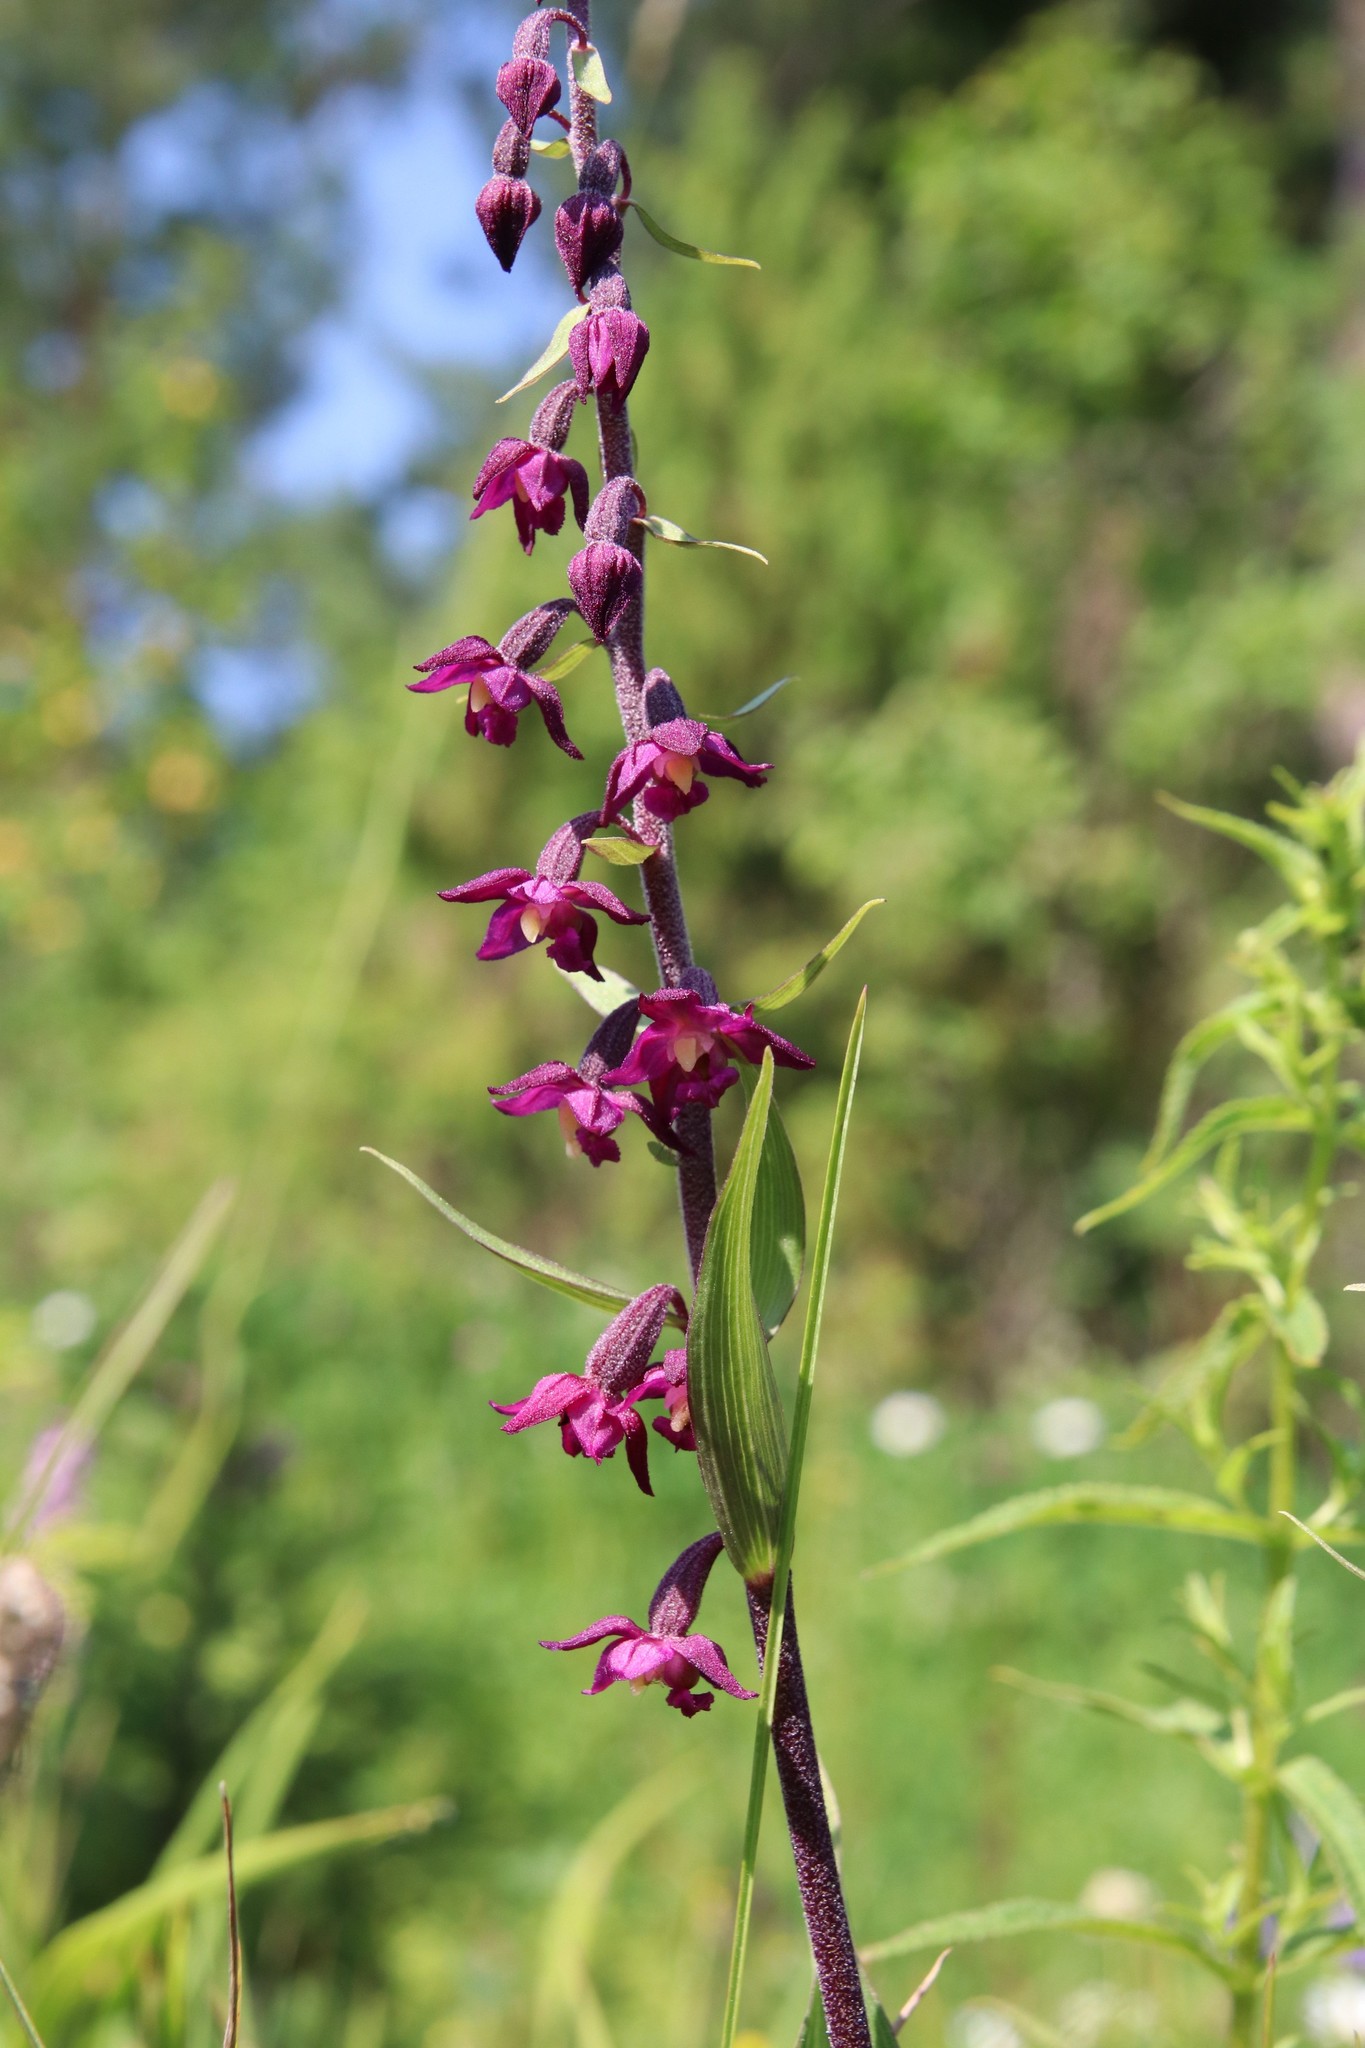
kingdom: Plantae
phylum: Tracheophyta
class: Liliopsida
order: Asparagales
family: Orchidaceae
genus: Epipactis
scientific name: Epipactis atrorubens
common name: Dark-red helleborine
